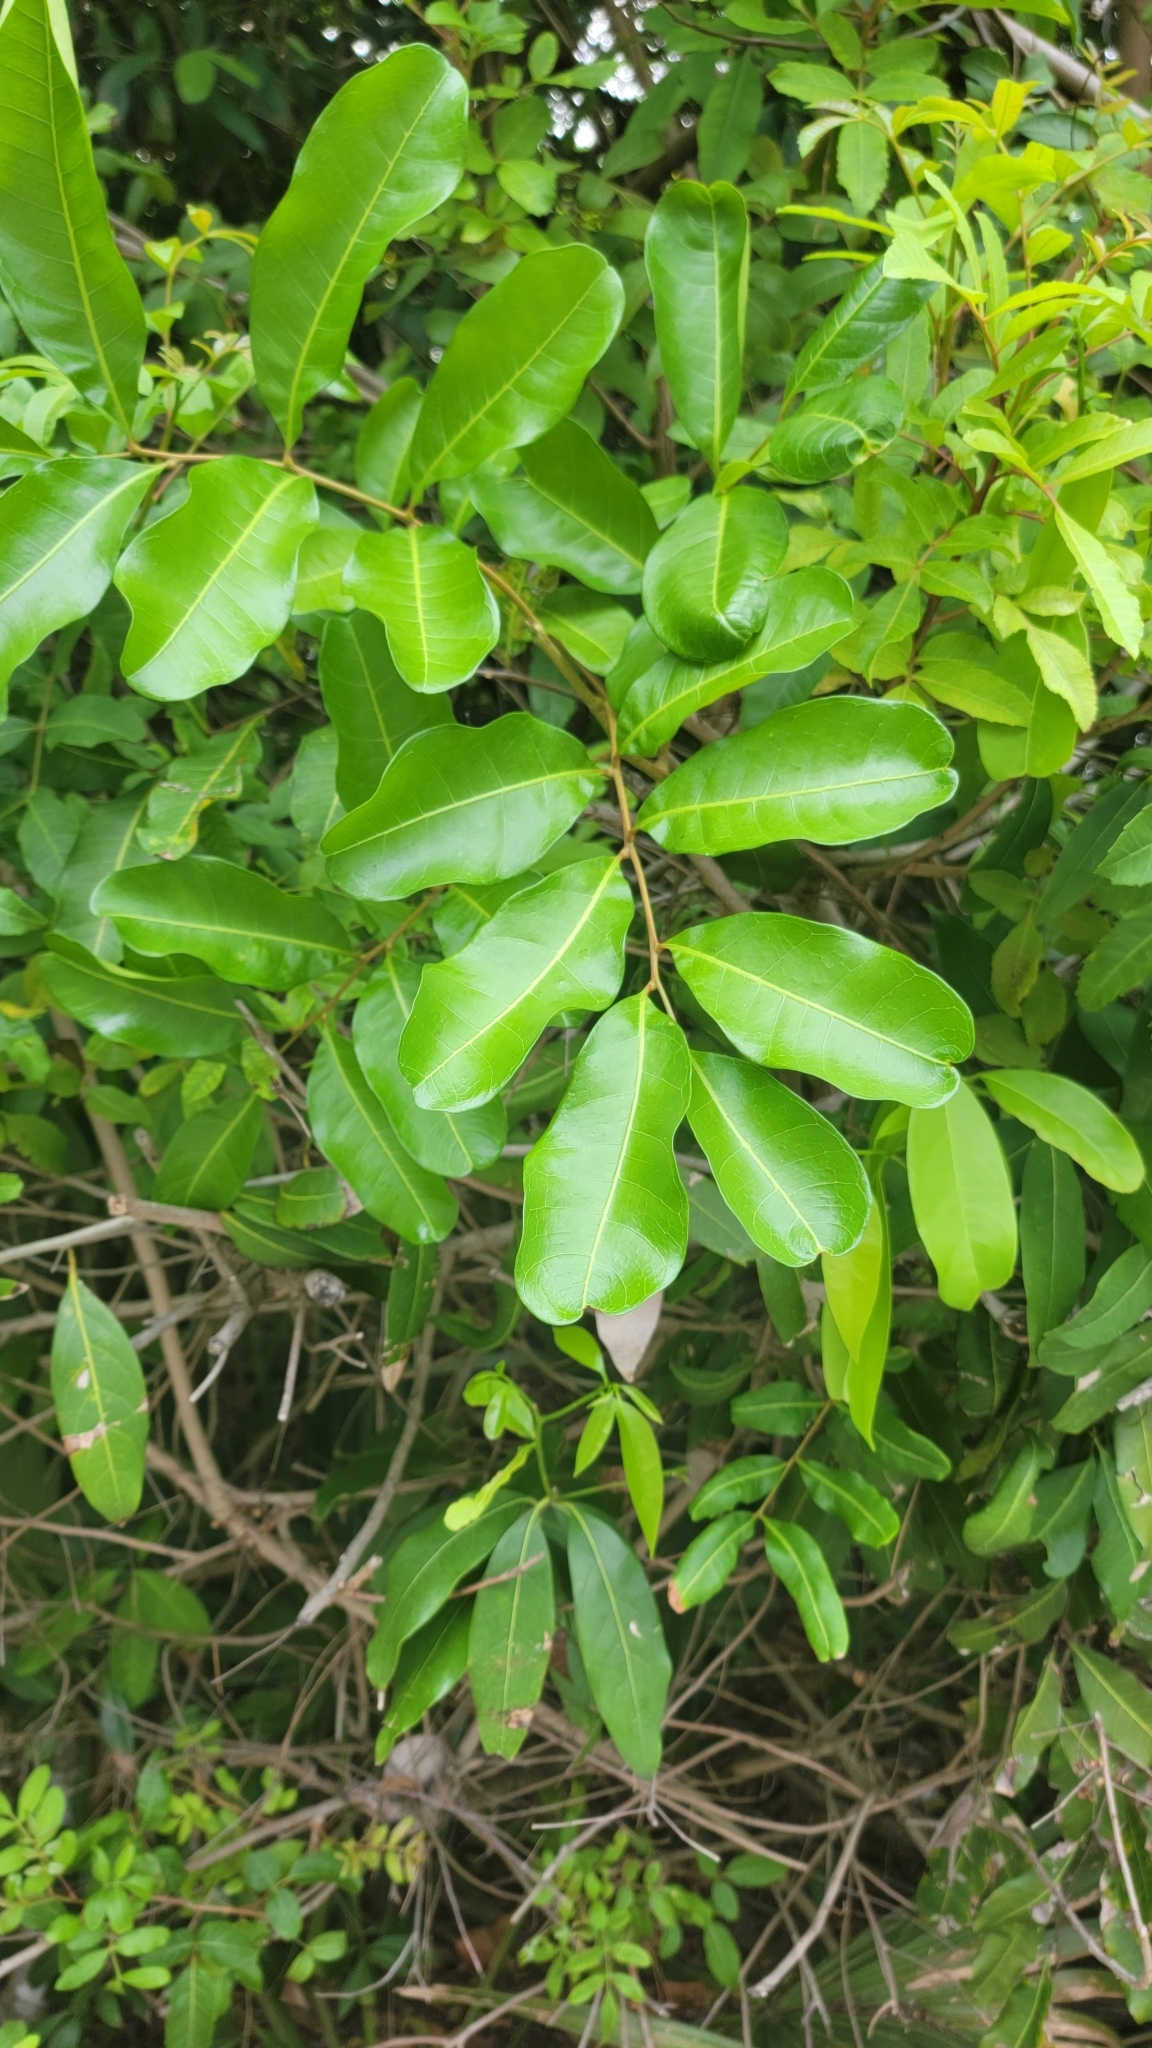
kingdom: Plantae
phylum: Tracheophyta
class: Magnoliopsida
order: Sapindales
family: Sapindaceae
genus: Cupaniopsis
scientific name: Cupaniopsis anacardioides
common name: Carrotwood
